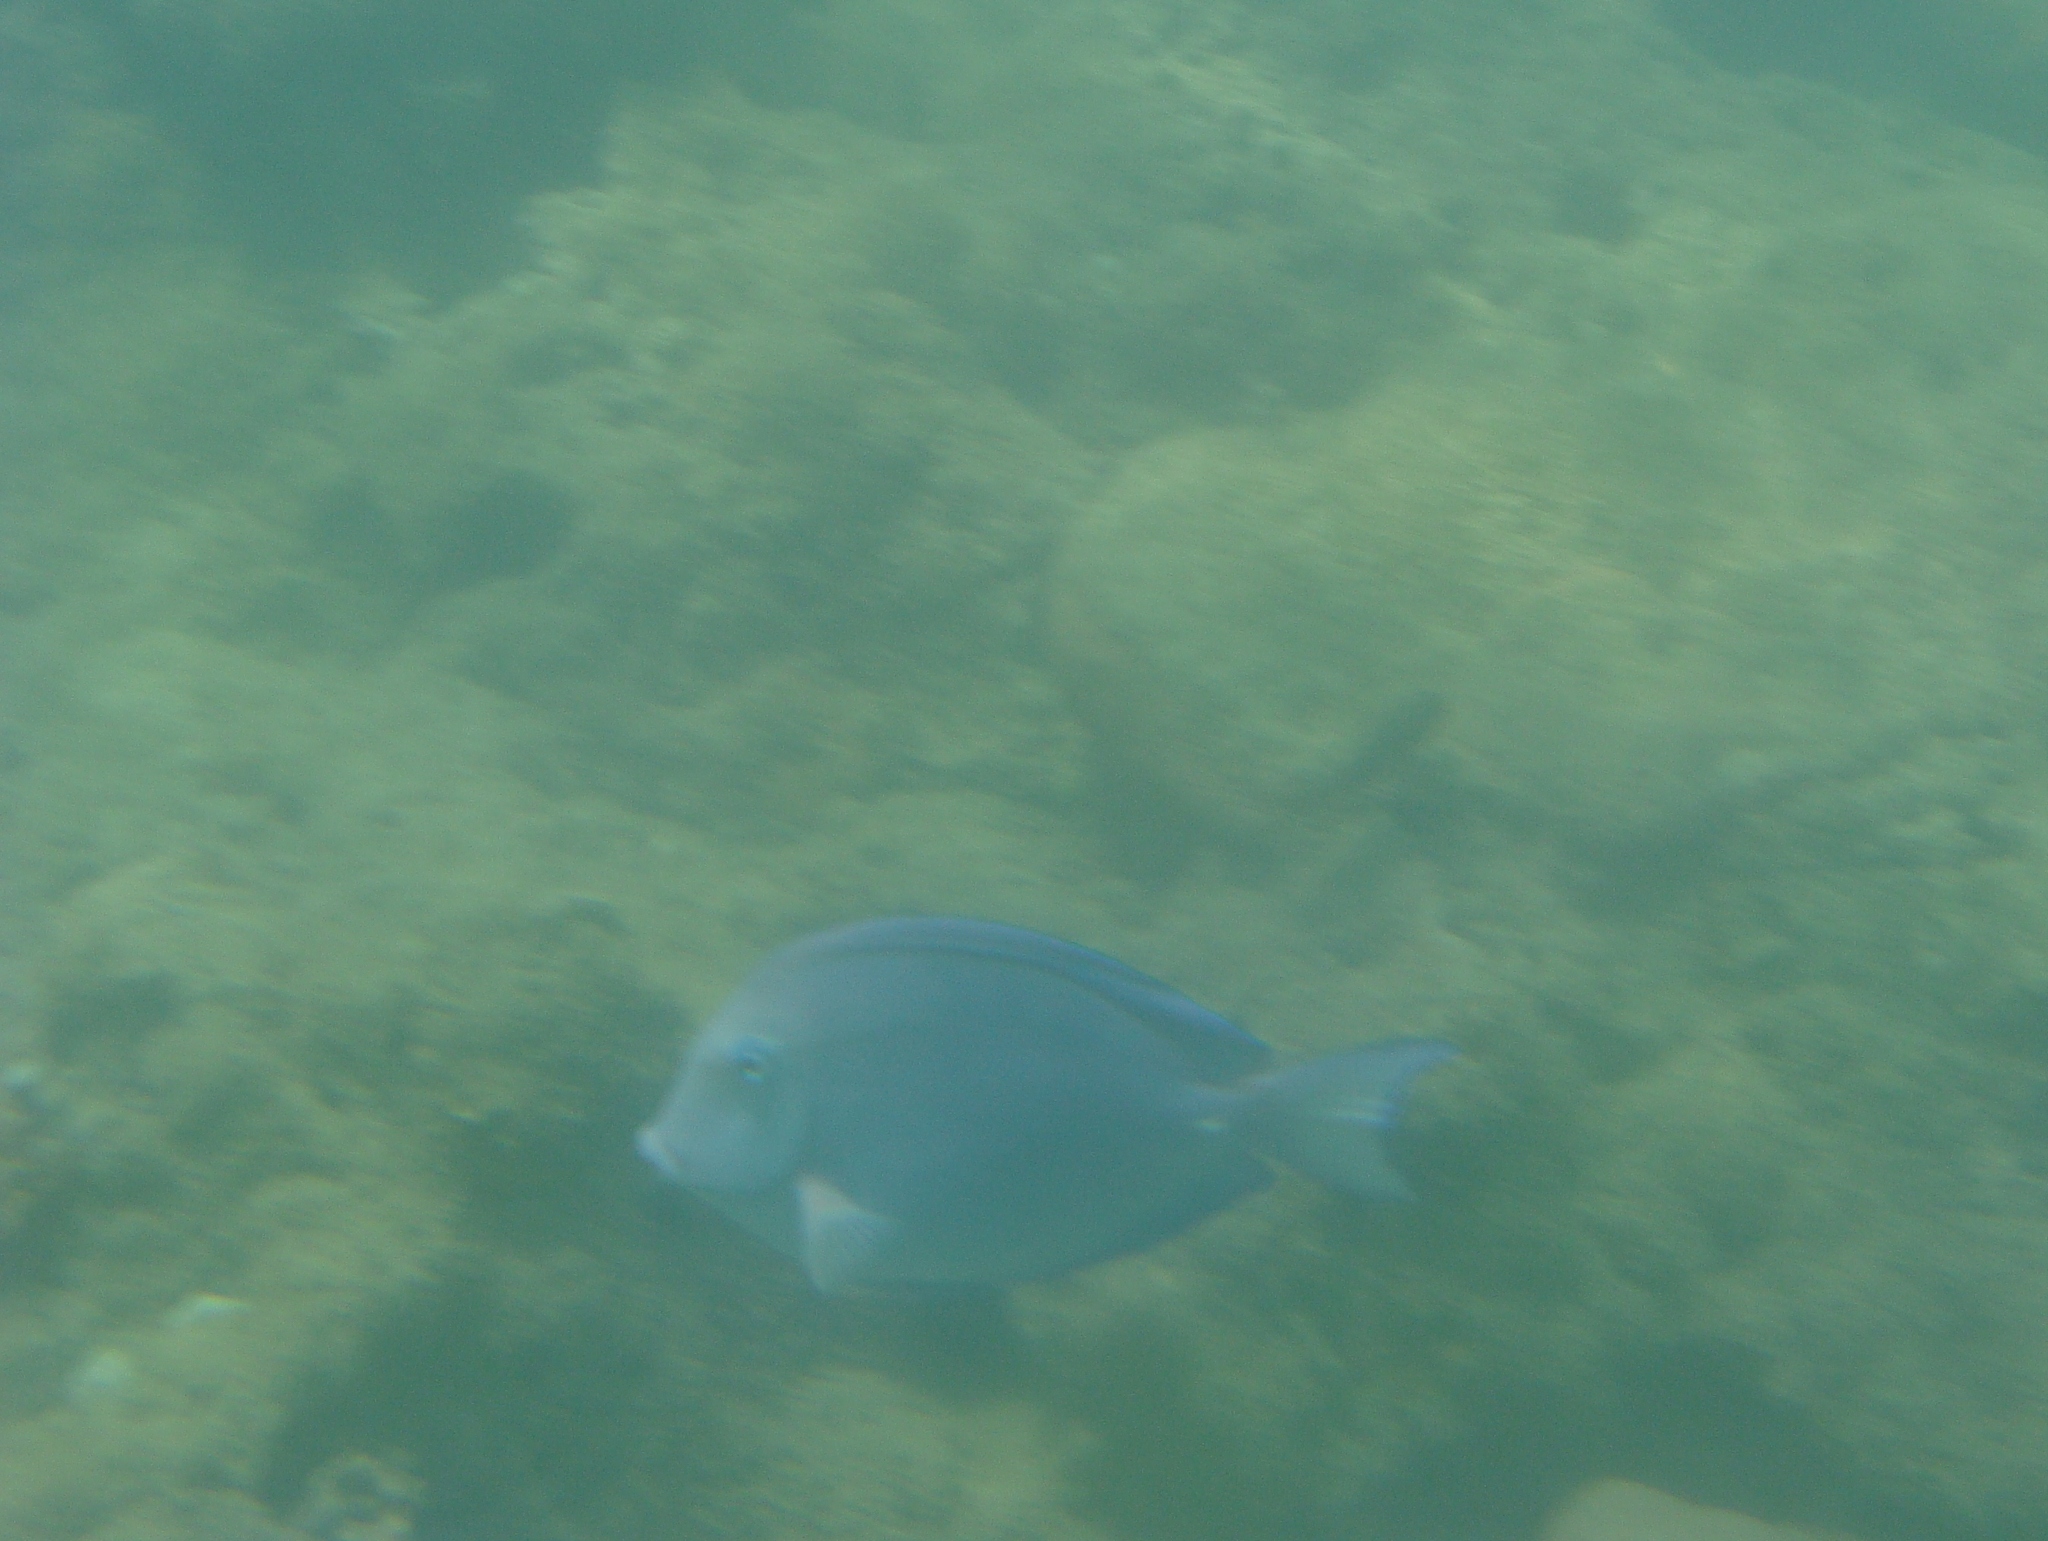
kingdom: Animalia
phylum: Chordata
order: Perciformes
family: Acanthuridae
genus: Acanthurus
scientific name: Acanthurus coeruleus
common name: Blue tang
